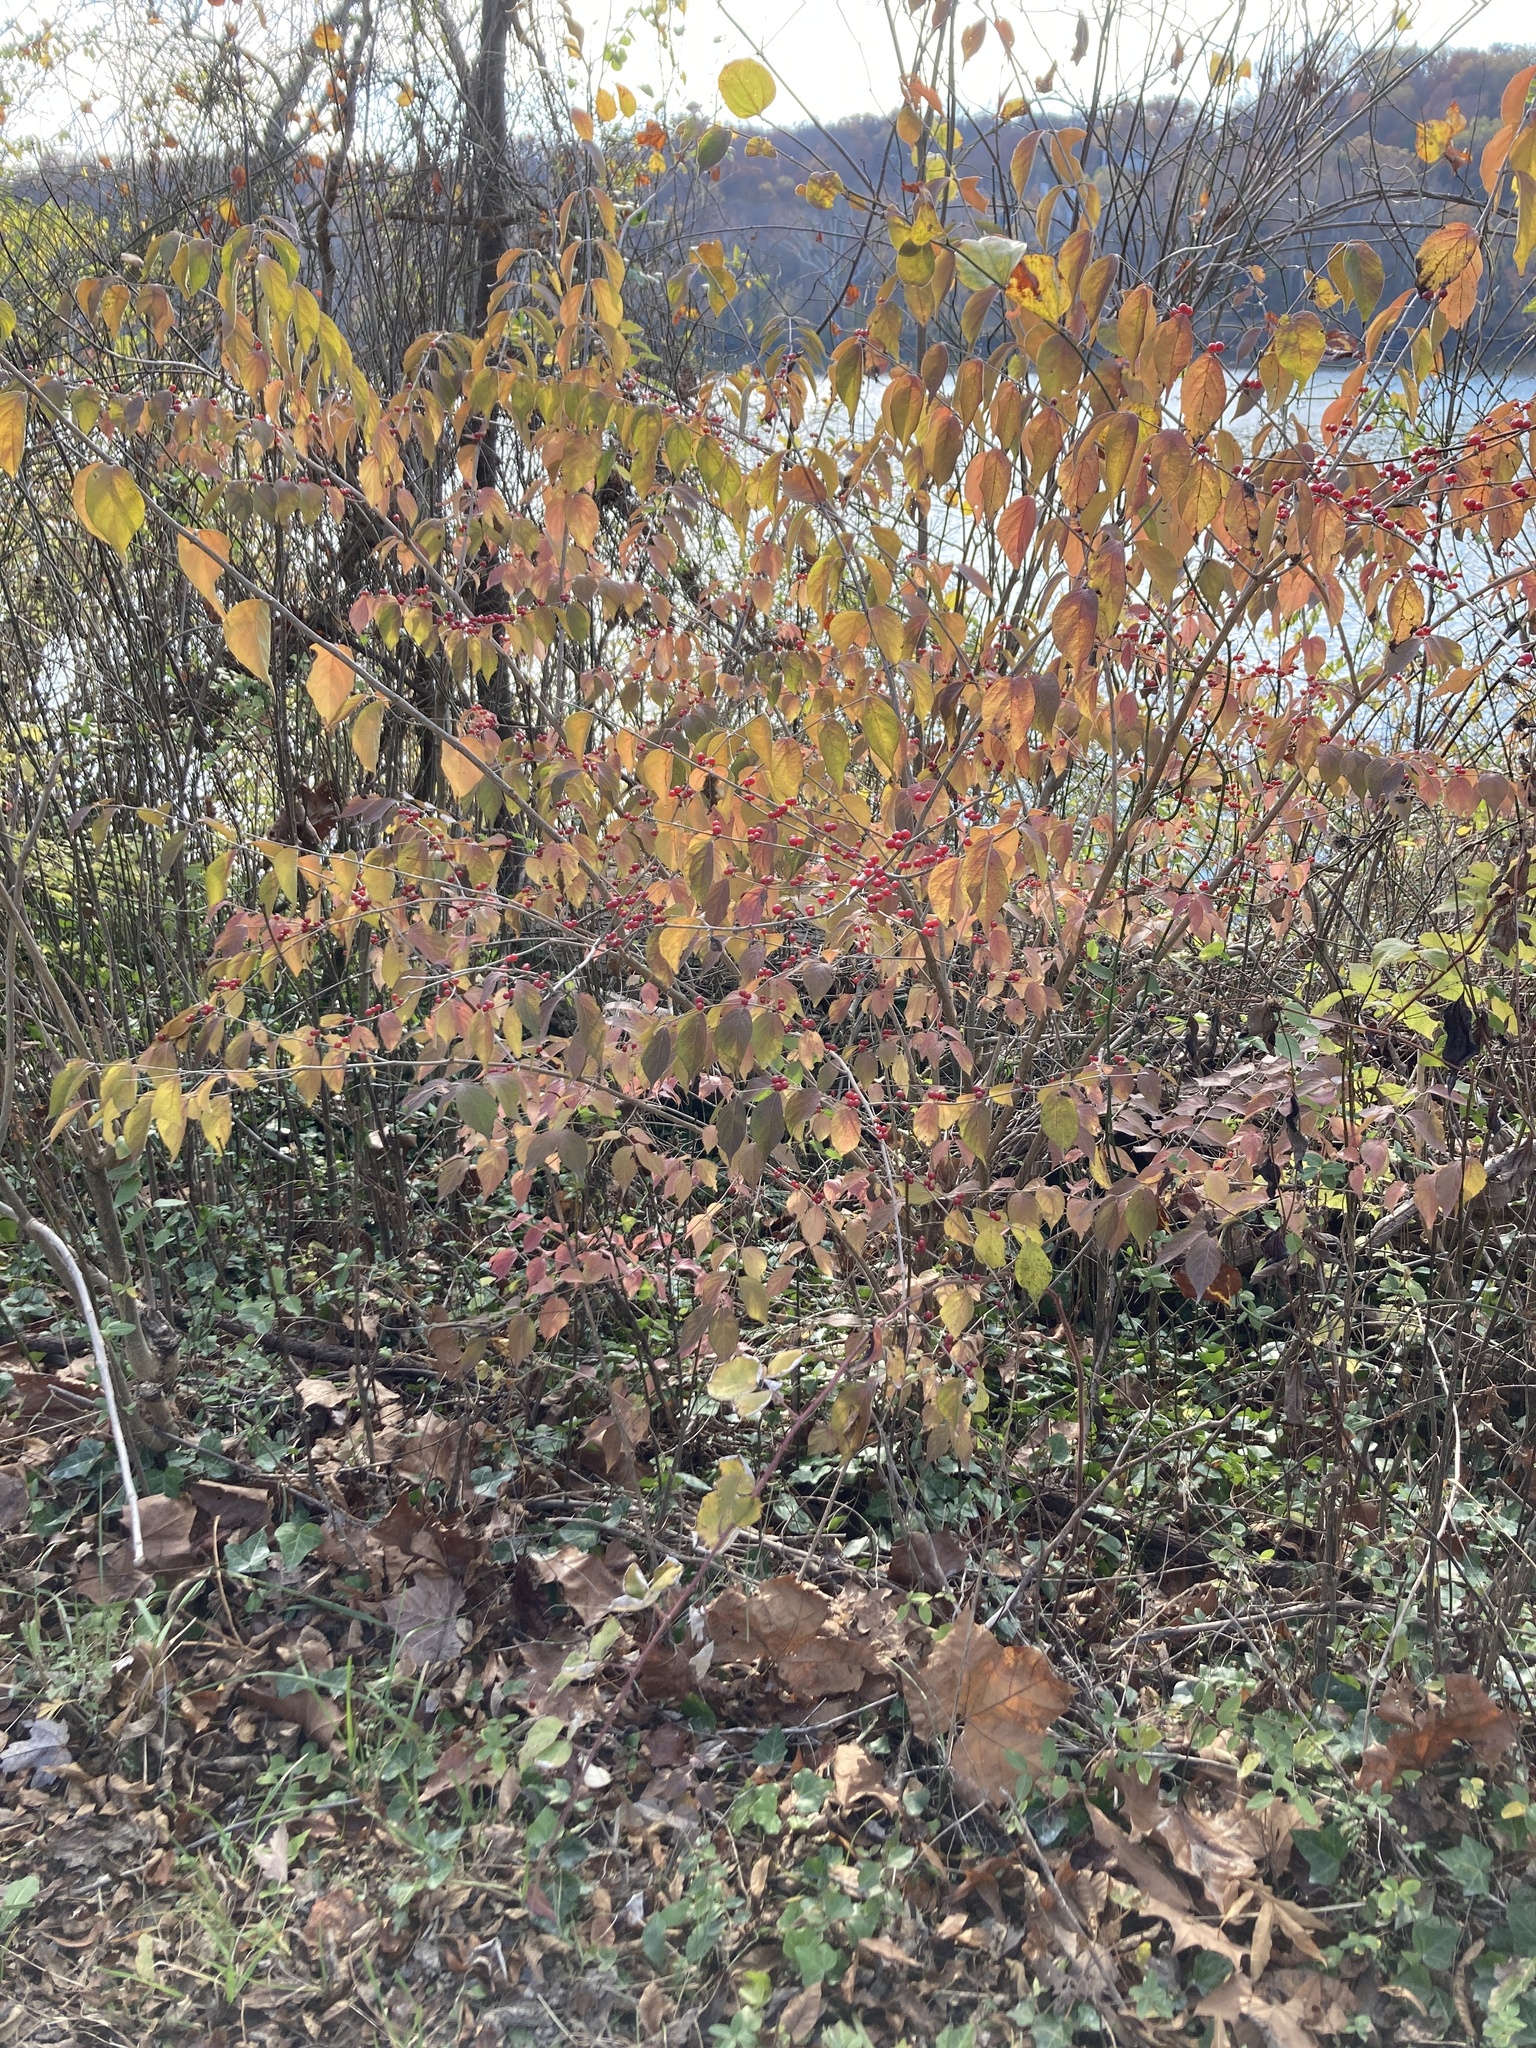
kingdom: Plantae
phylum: Tracheophyta
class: Magnoliopsida
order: Dipsacales
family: Caprifoliaceae
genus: Lonicera
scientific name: Lonicera maackii
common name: Amur honeysuckle
